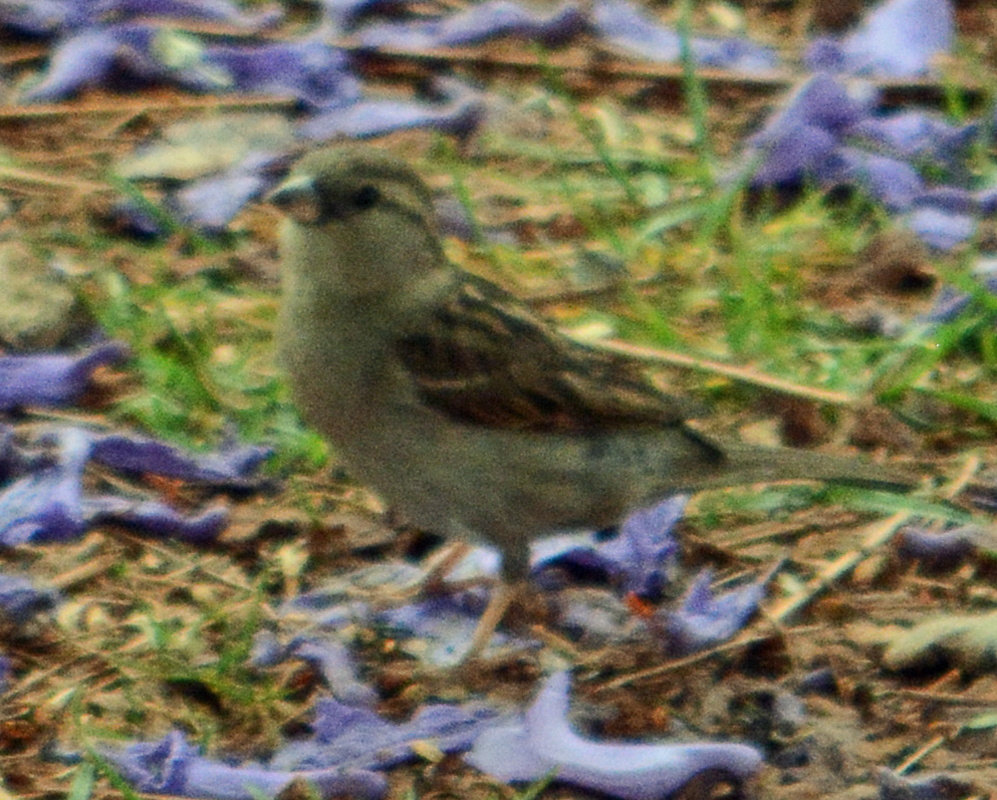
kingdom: Animalia
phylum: Chordata
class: Aves
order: Passeriformes
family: Passeridae
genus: Passer
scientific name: Passer domesticus
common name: House sparrow
